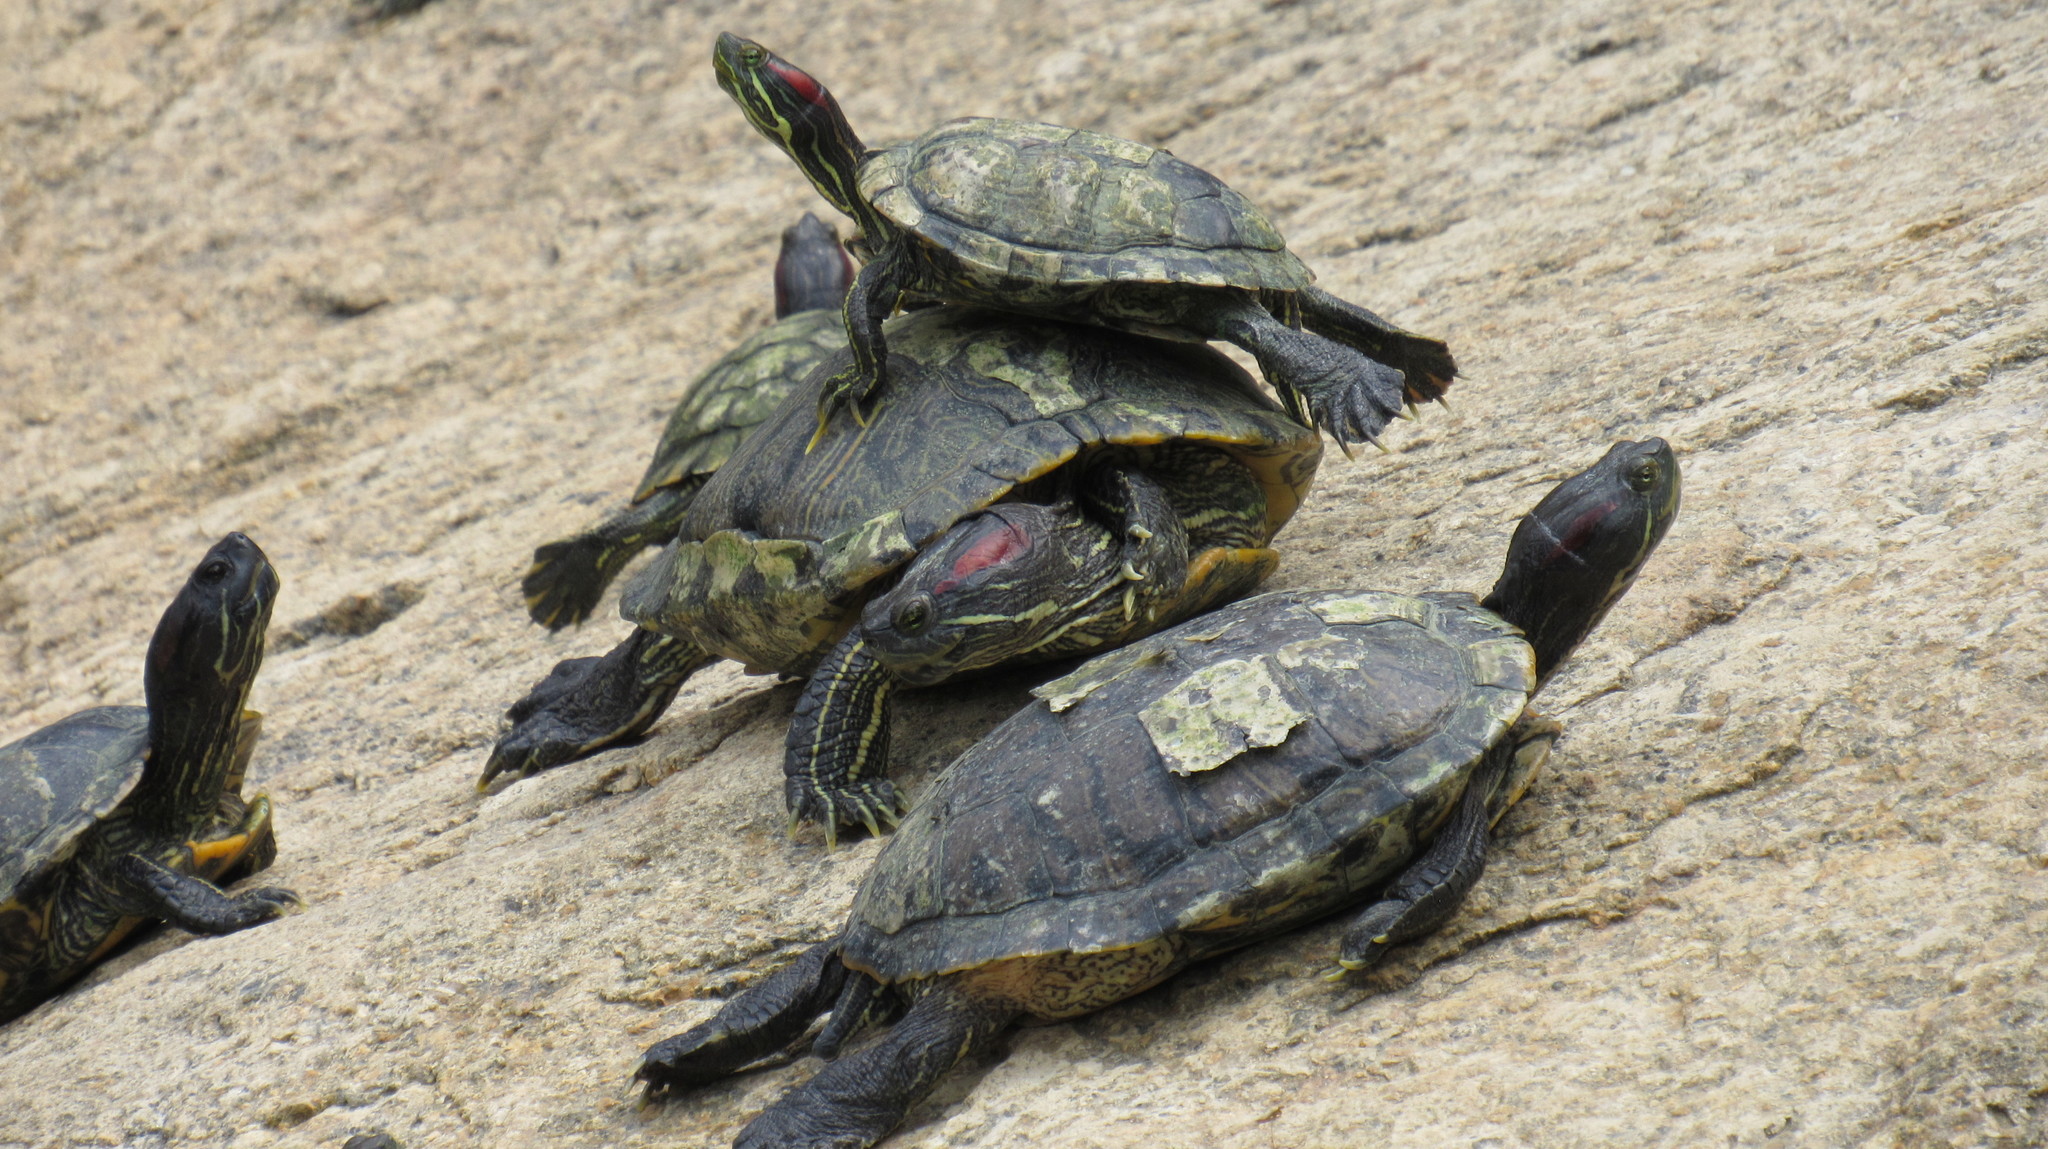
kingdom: Animalia
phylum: Chordata
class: Testudines
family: Emydidae
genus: Trachemys
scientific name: Trachemys scripta
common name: Slider
